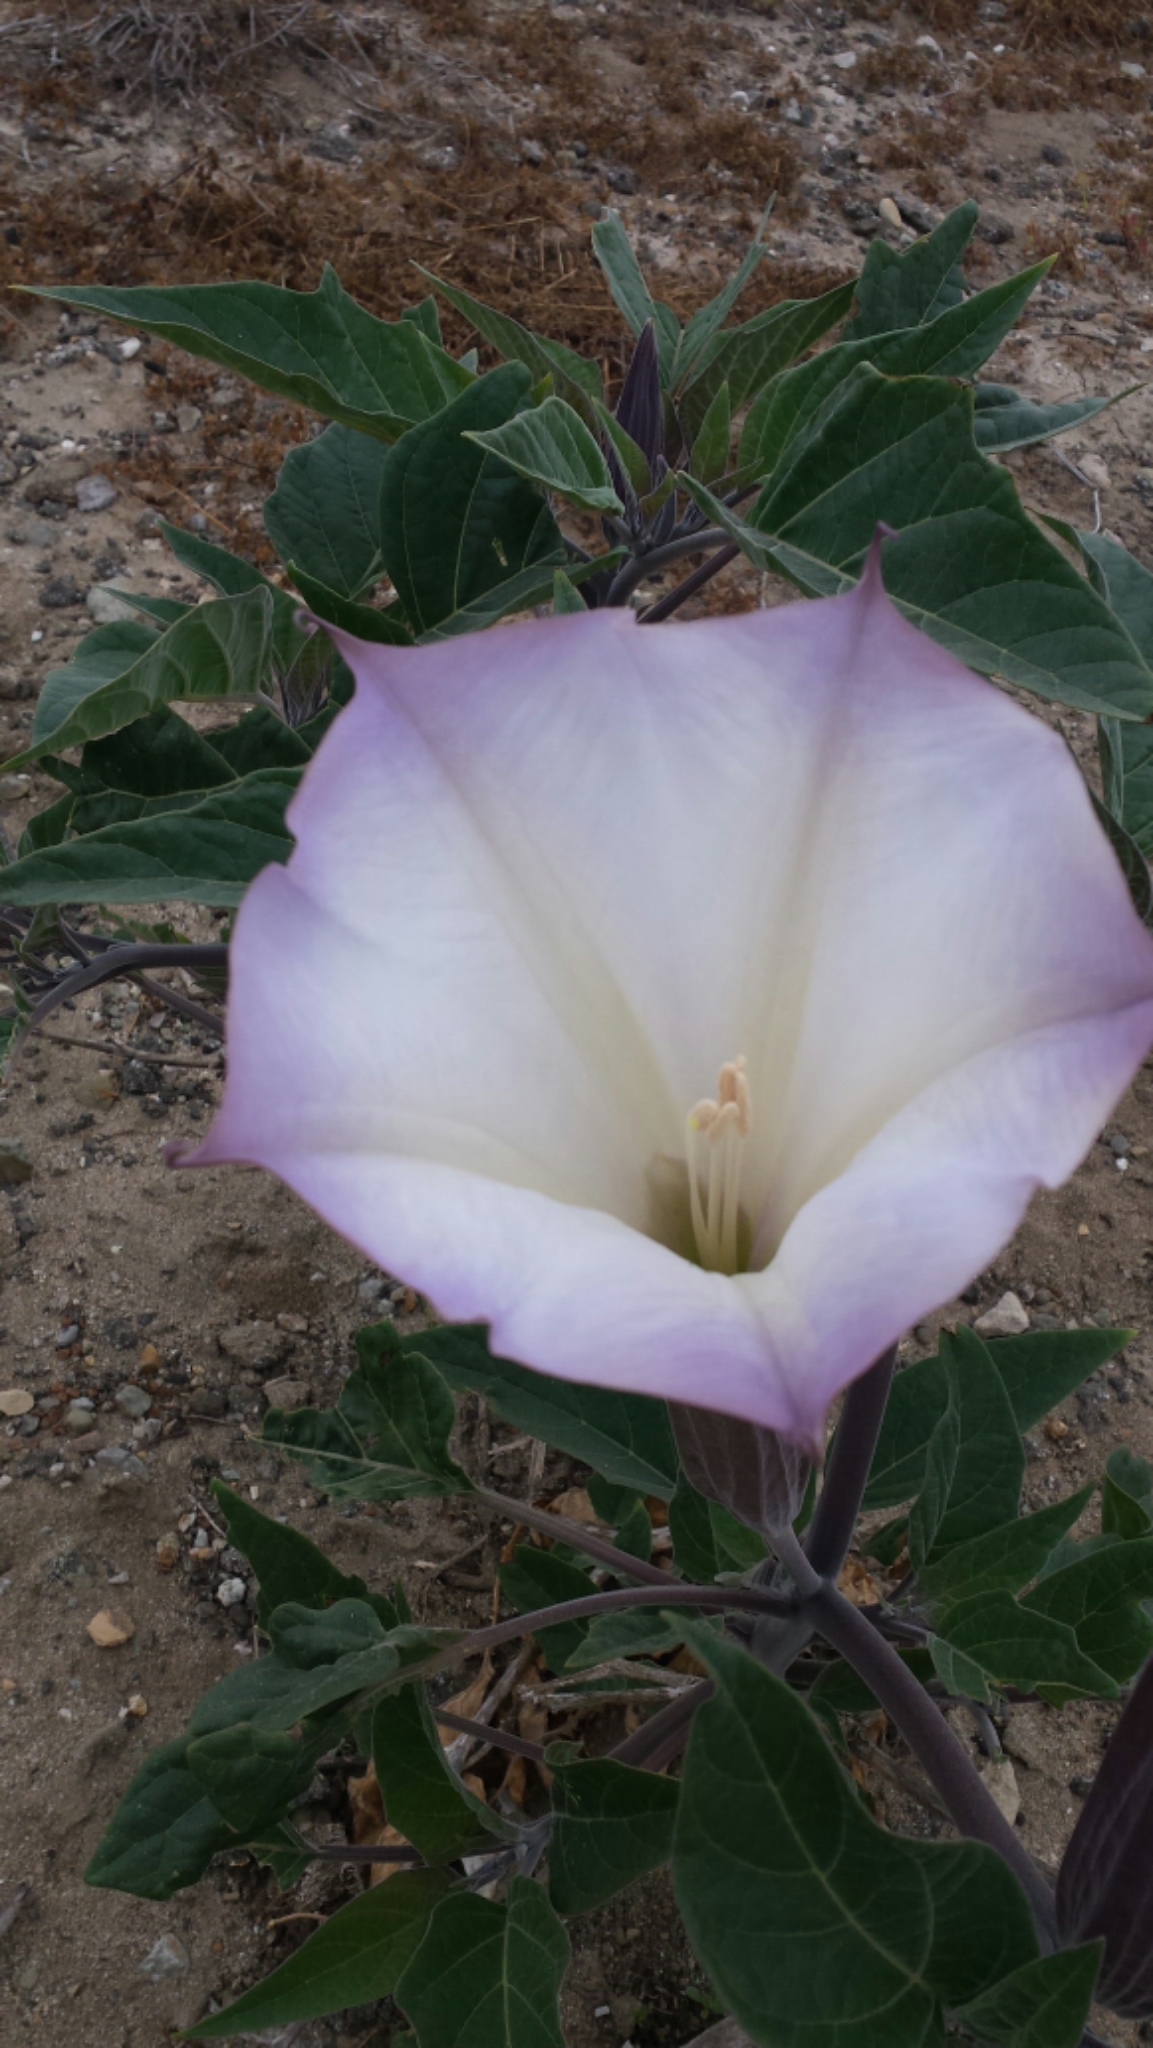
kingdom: Plantae
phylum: Tracheophyta
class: Magnoliopsida
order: Solanales
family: Solanaceae
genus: Datura
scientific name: Datura wrightii
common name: Sacred thorn-apple
